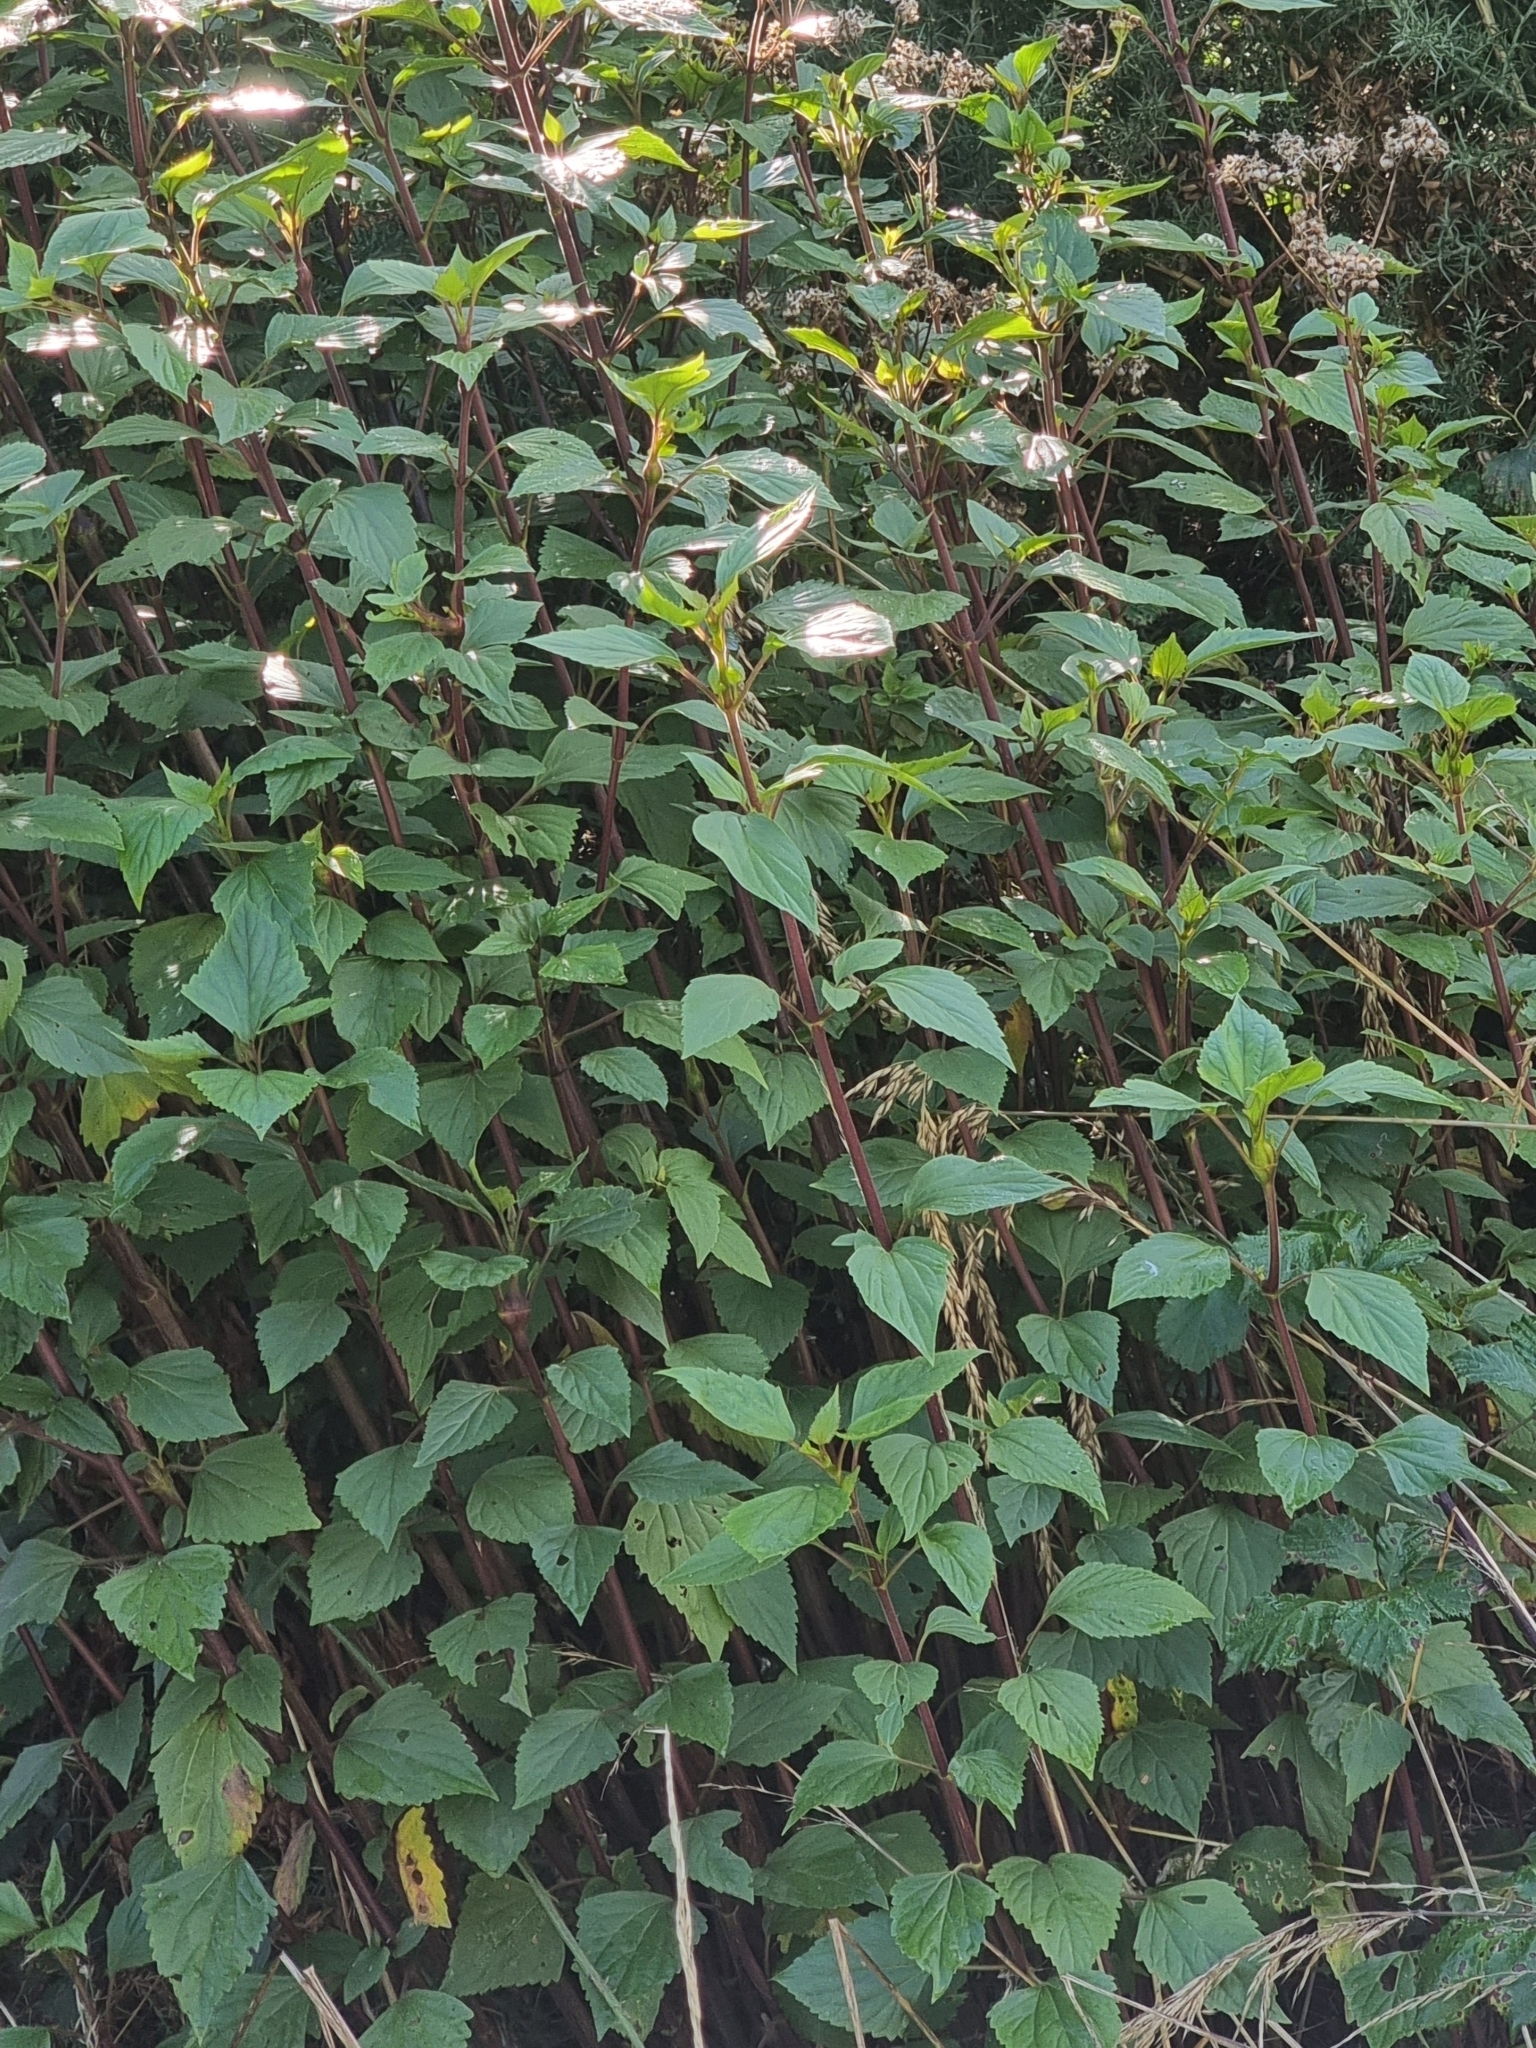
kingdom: Plantae
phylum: Tracheophyta
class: Magnoliopsida
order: Asterales
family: Asteraceae
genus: Ageratina
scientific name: Ageratina adenophora
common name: Sticky snakeroot
